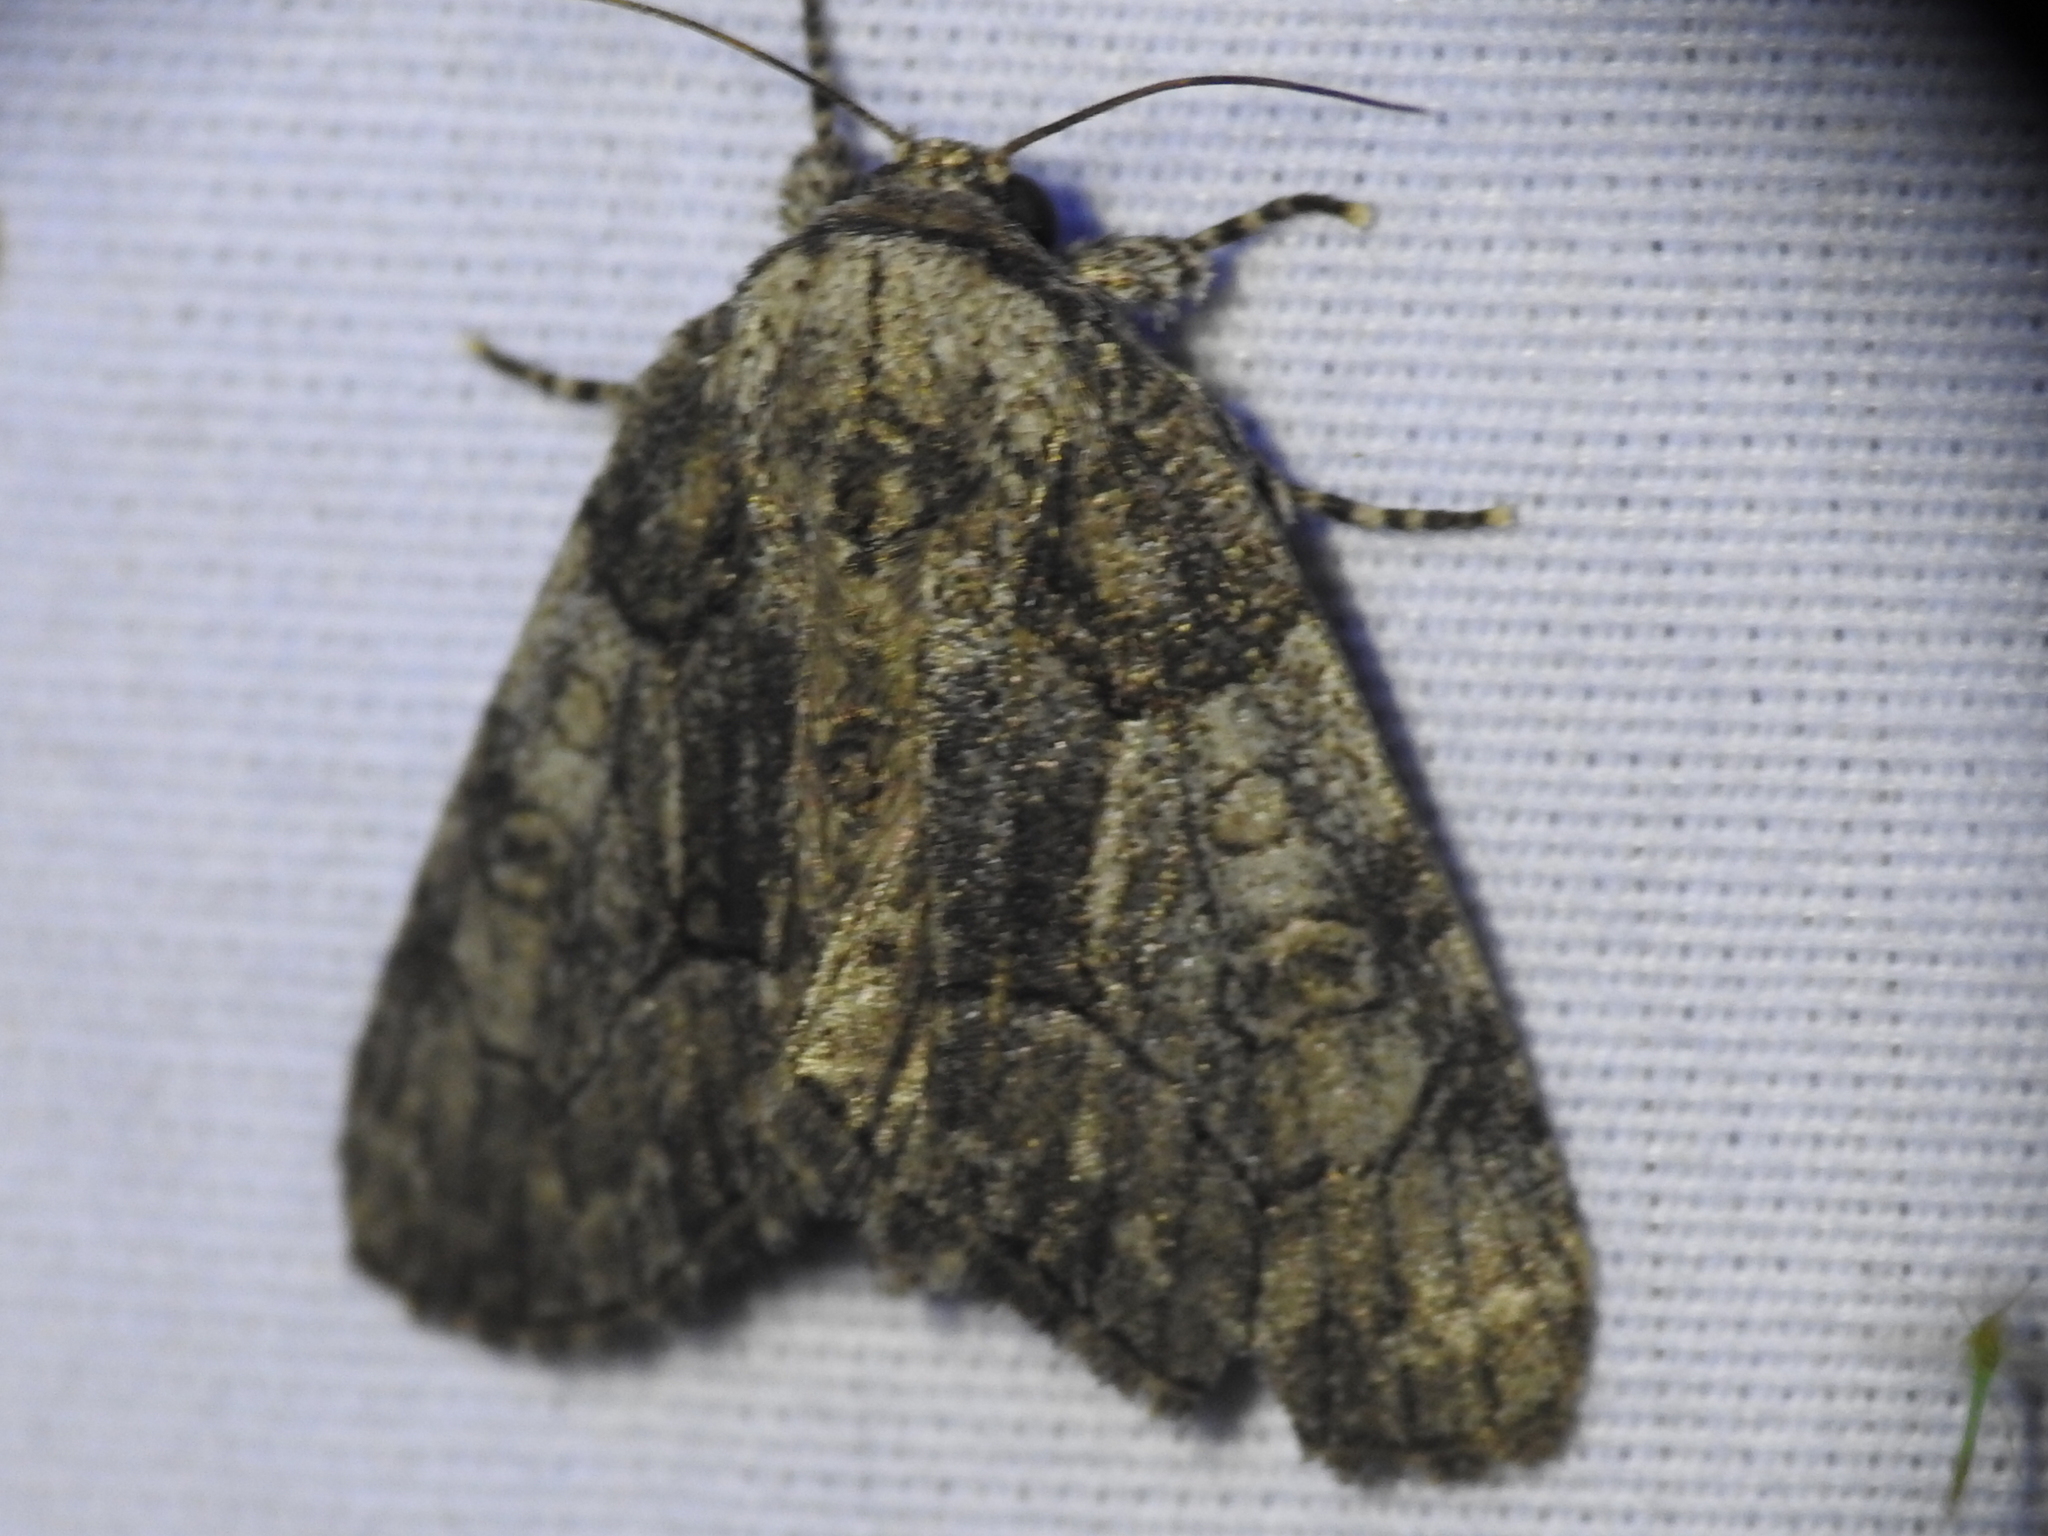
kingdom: Animalia
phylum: Arthropoda
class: Insecta
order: Lepidoptera
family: Noctuidae
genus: Raphia
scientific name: Raphia frater
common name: Brother
